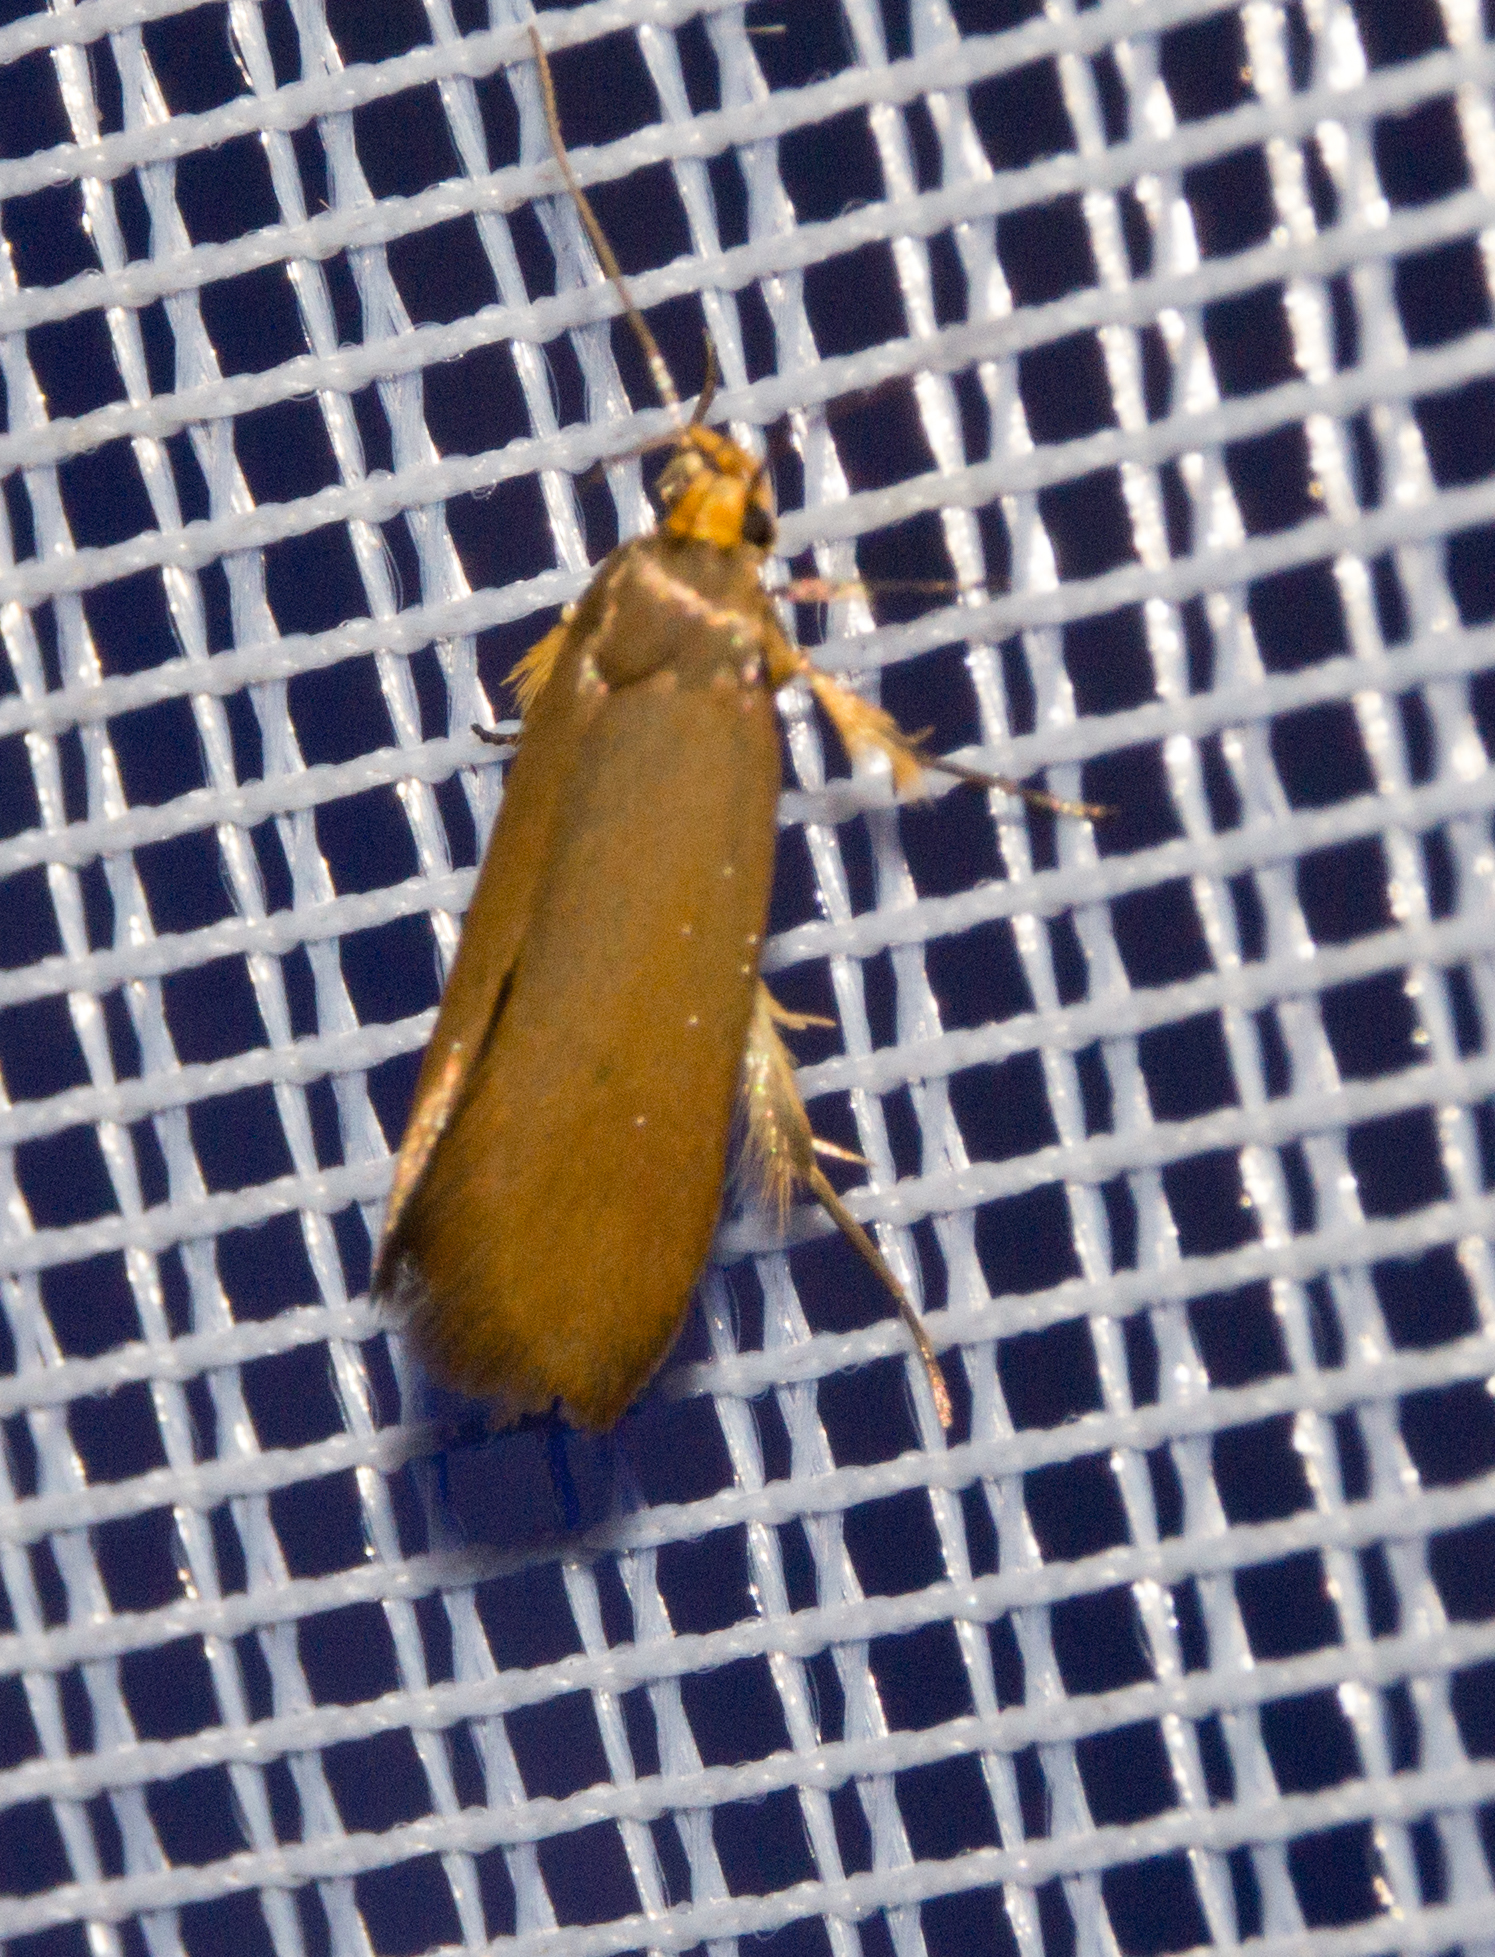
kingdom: Animalia
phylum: Arthropoda
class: Insecta
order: Lepidoptera
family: Oecophoridae
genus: Borkhausenia
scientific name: Borkhausenia Crassa unitella
